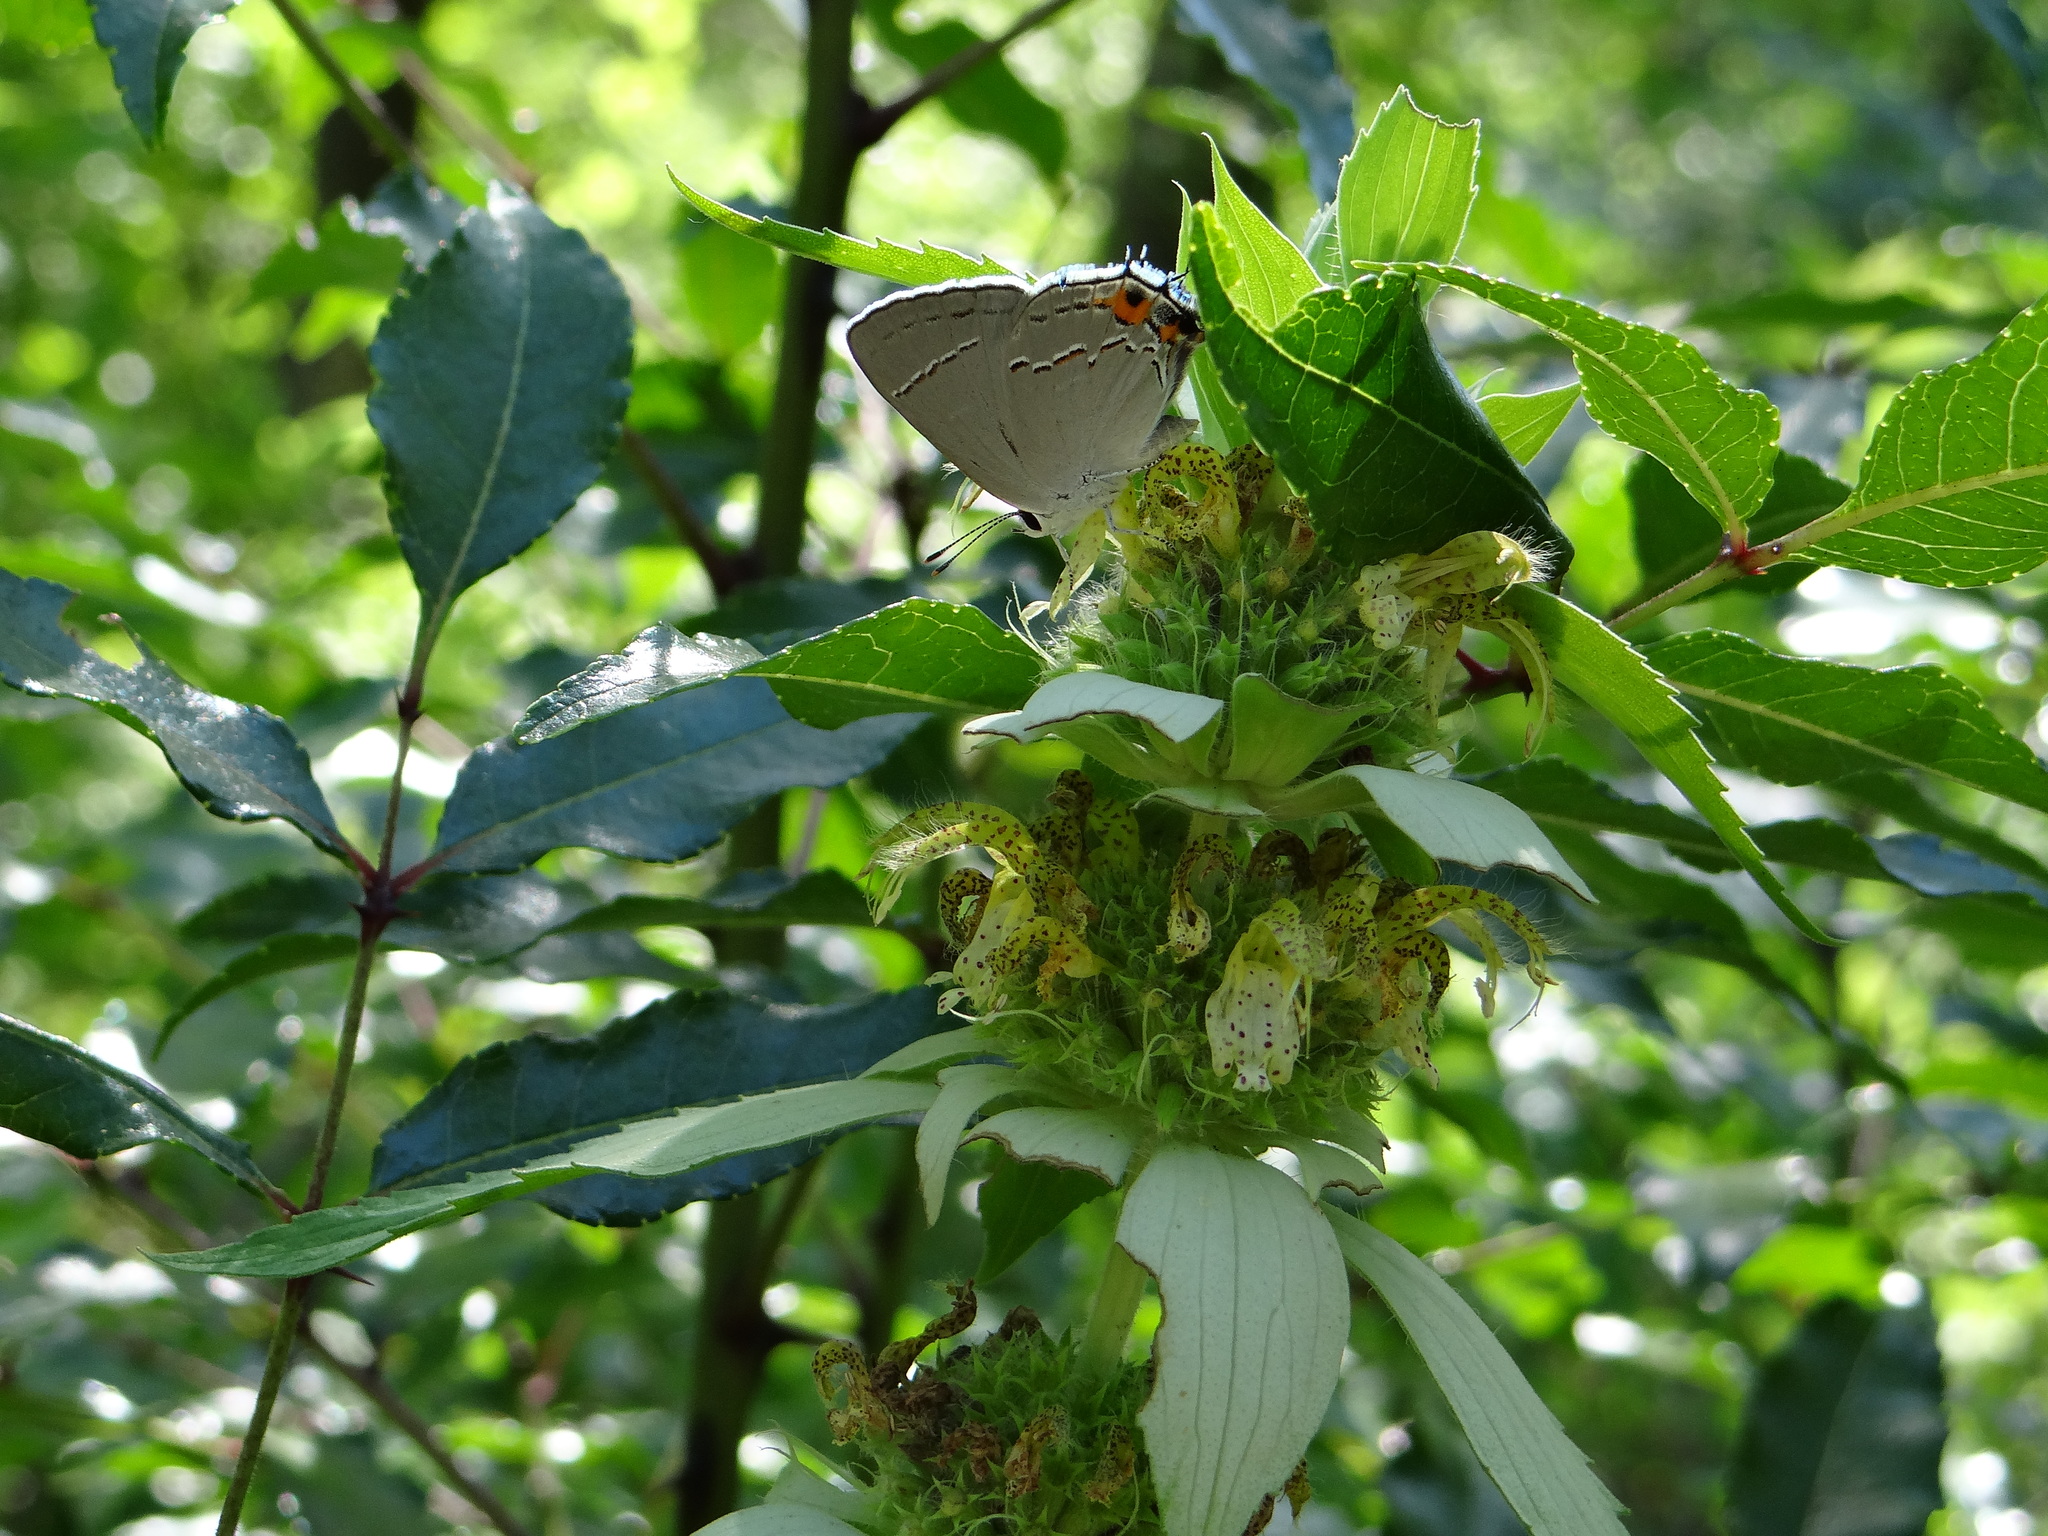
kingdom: Animalia
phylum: Arthropoda
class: Insecta
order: Lepidoptera
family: Lycaenidae
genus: Strymon
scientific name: Strymon melinus
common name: Gray hairstreak
